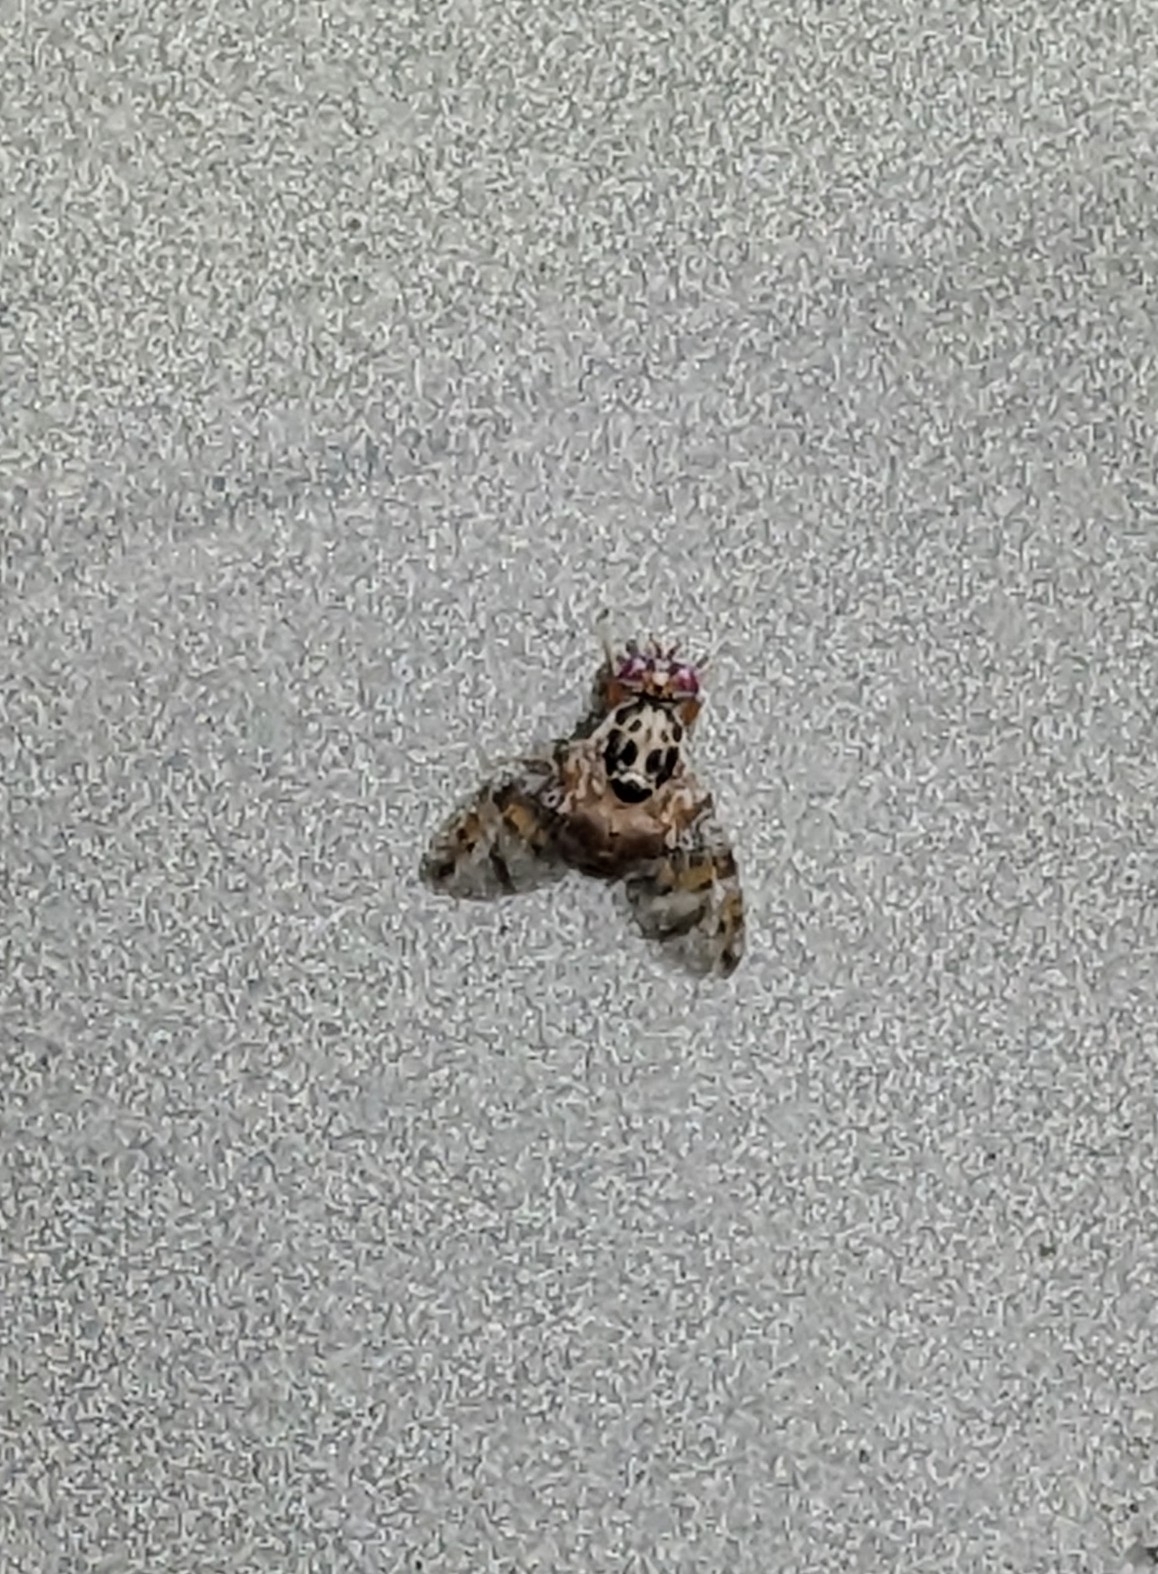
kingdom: Animalia
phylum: Arthropoda
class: Insecta
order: Diptera
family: Tephritidae
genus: Ceratitis
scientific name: Ceratitis capitata
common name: Mediterranean fruit fly
